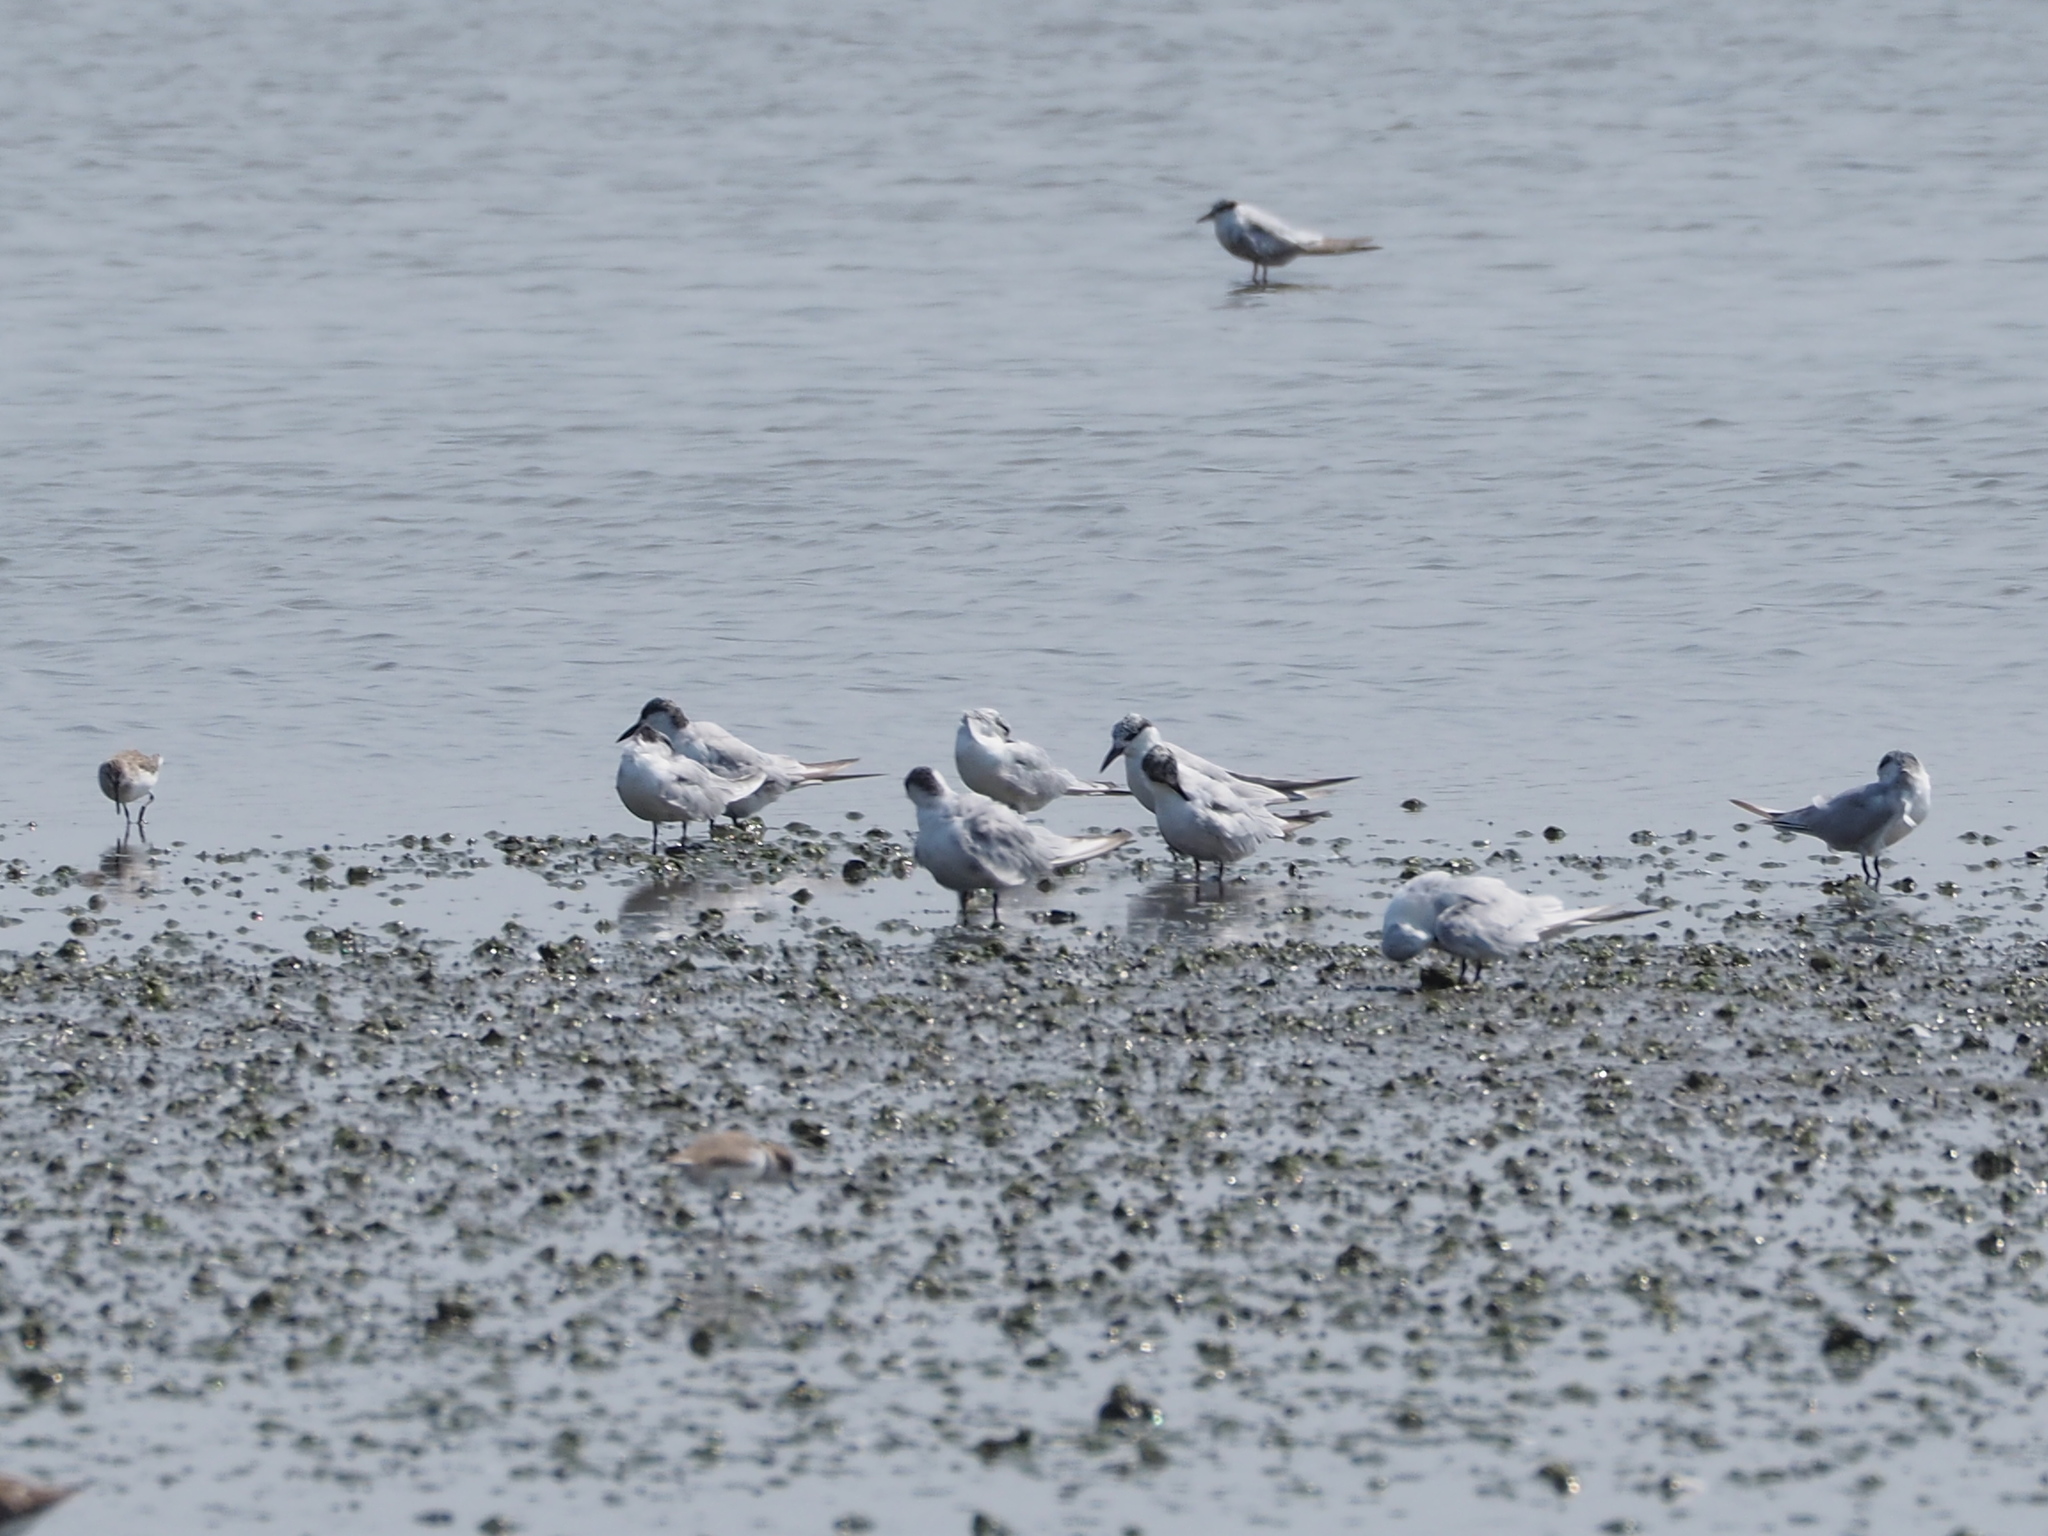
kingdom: Animalia
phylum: Chordata
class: Aves
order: Charadriiformes
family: Laridae
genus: Chlidonias
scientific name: Chlidonias hybrida
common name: Whiskered tern
